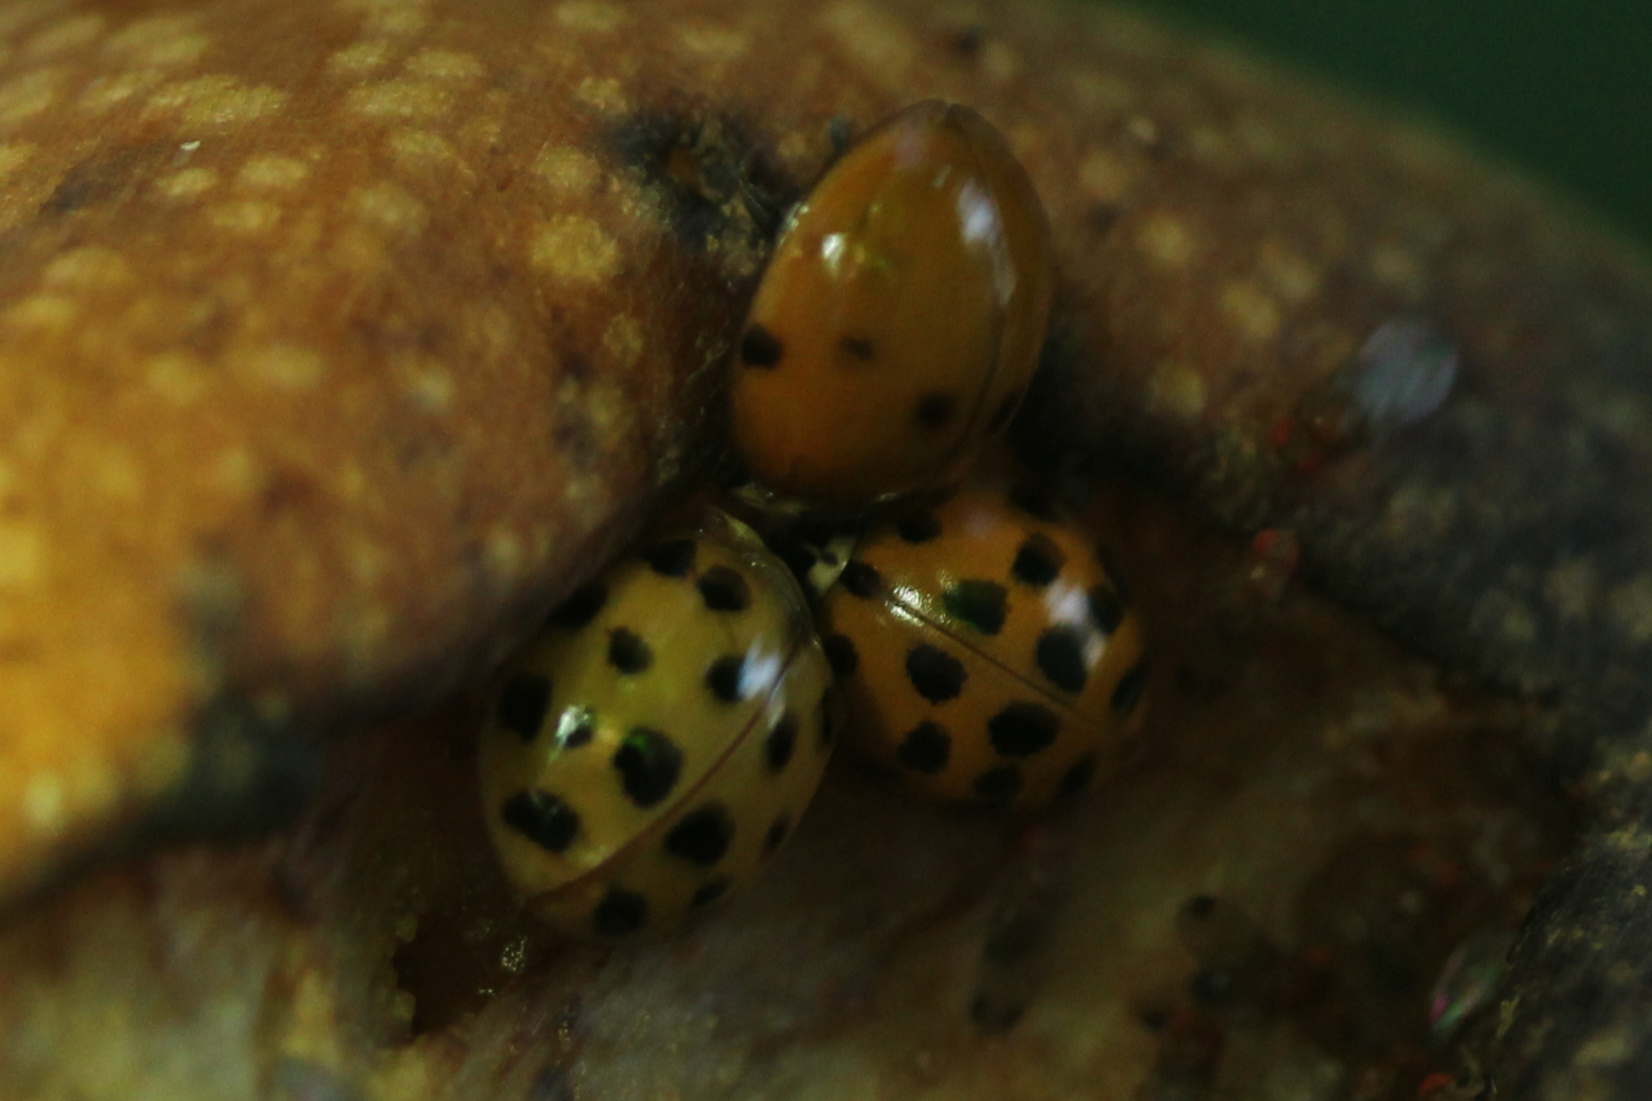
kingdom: Animalia
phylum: Arthropoda
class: Insecta
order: Coleoptera
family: Coccinellidae
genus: Harmonia
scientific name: Harmonia axyridis
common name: Harlequin ladybird
